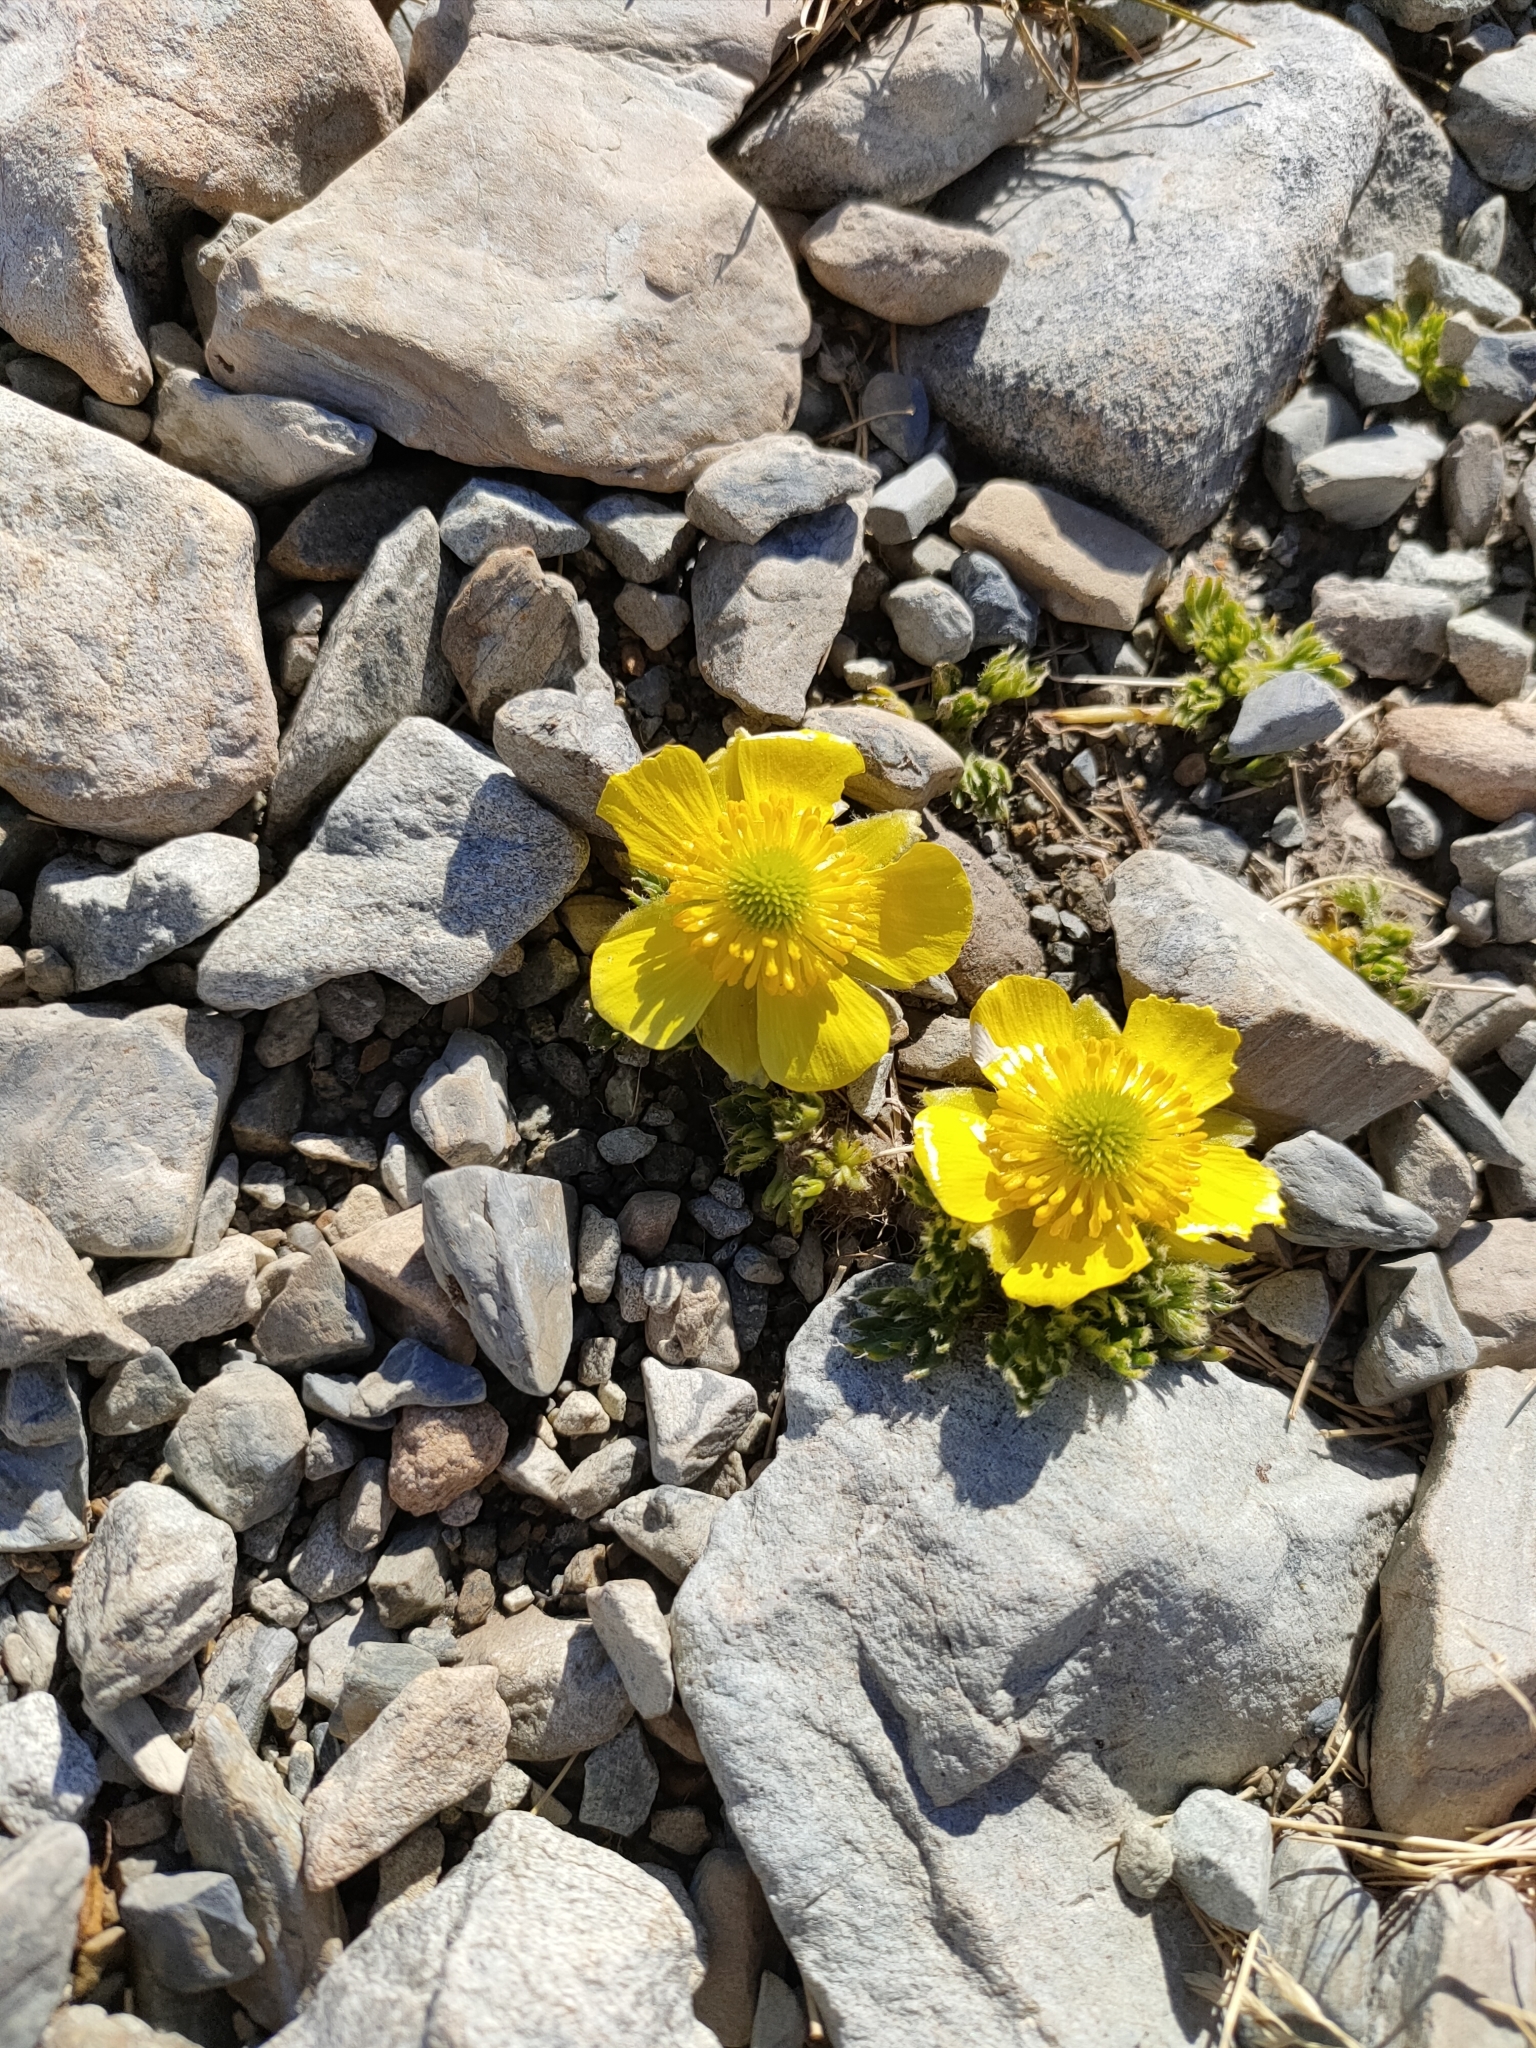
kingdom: Plantae
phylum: Tracheophyta
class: Magnoliopsida
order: Ranunculales
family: Ranunculaceae
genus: Ranunculus
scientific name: Ranunculus sericophyllus
